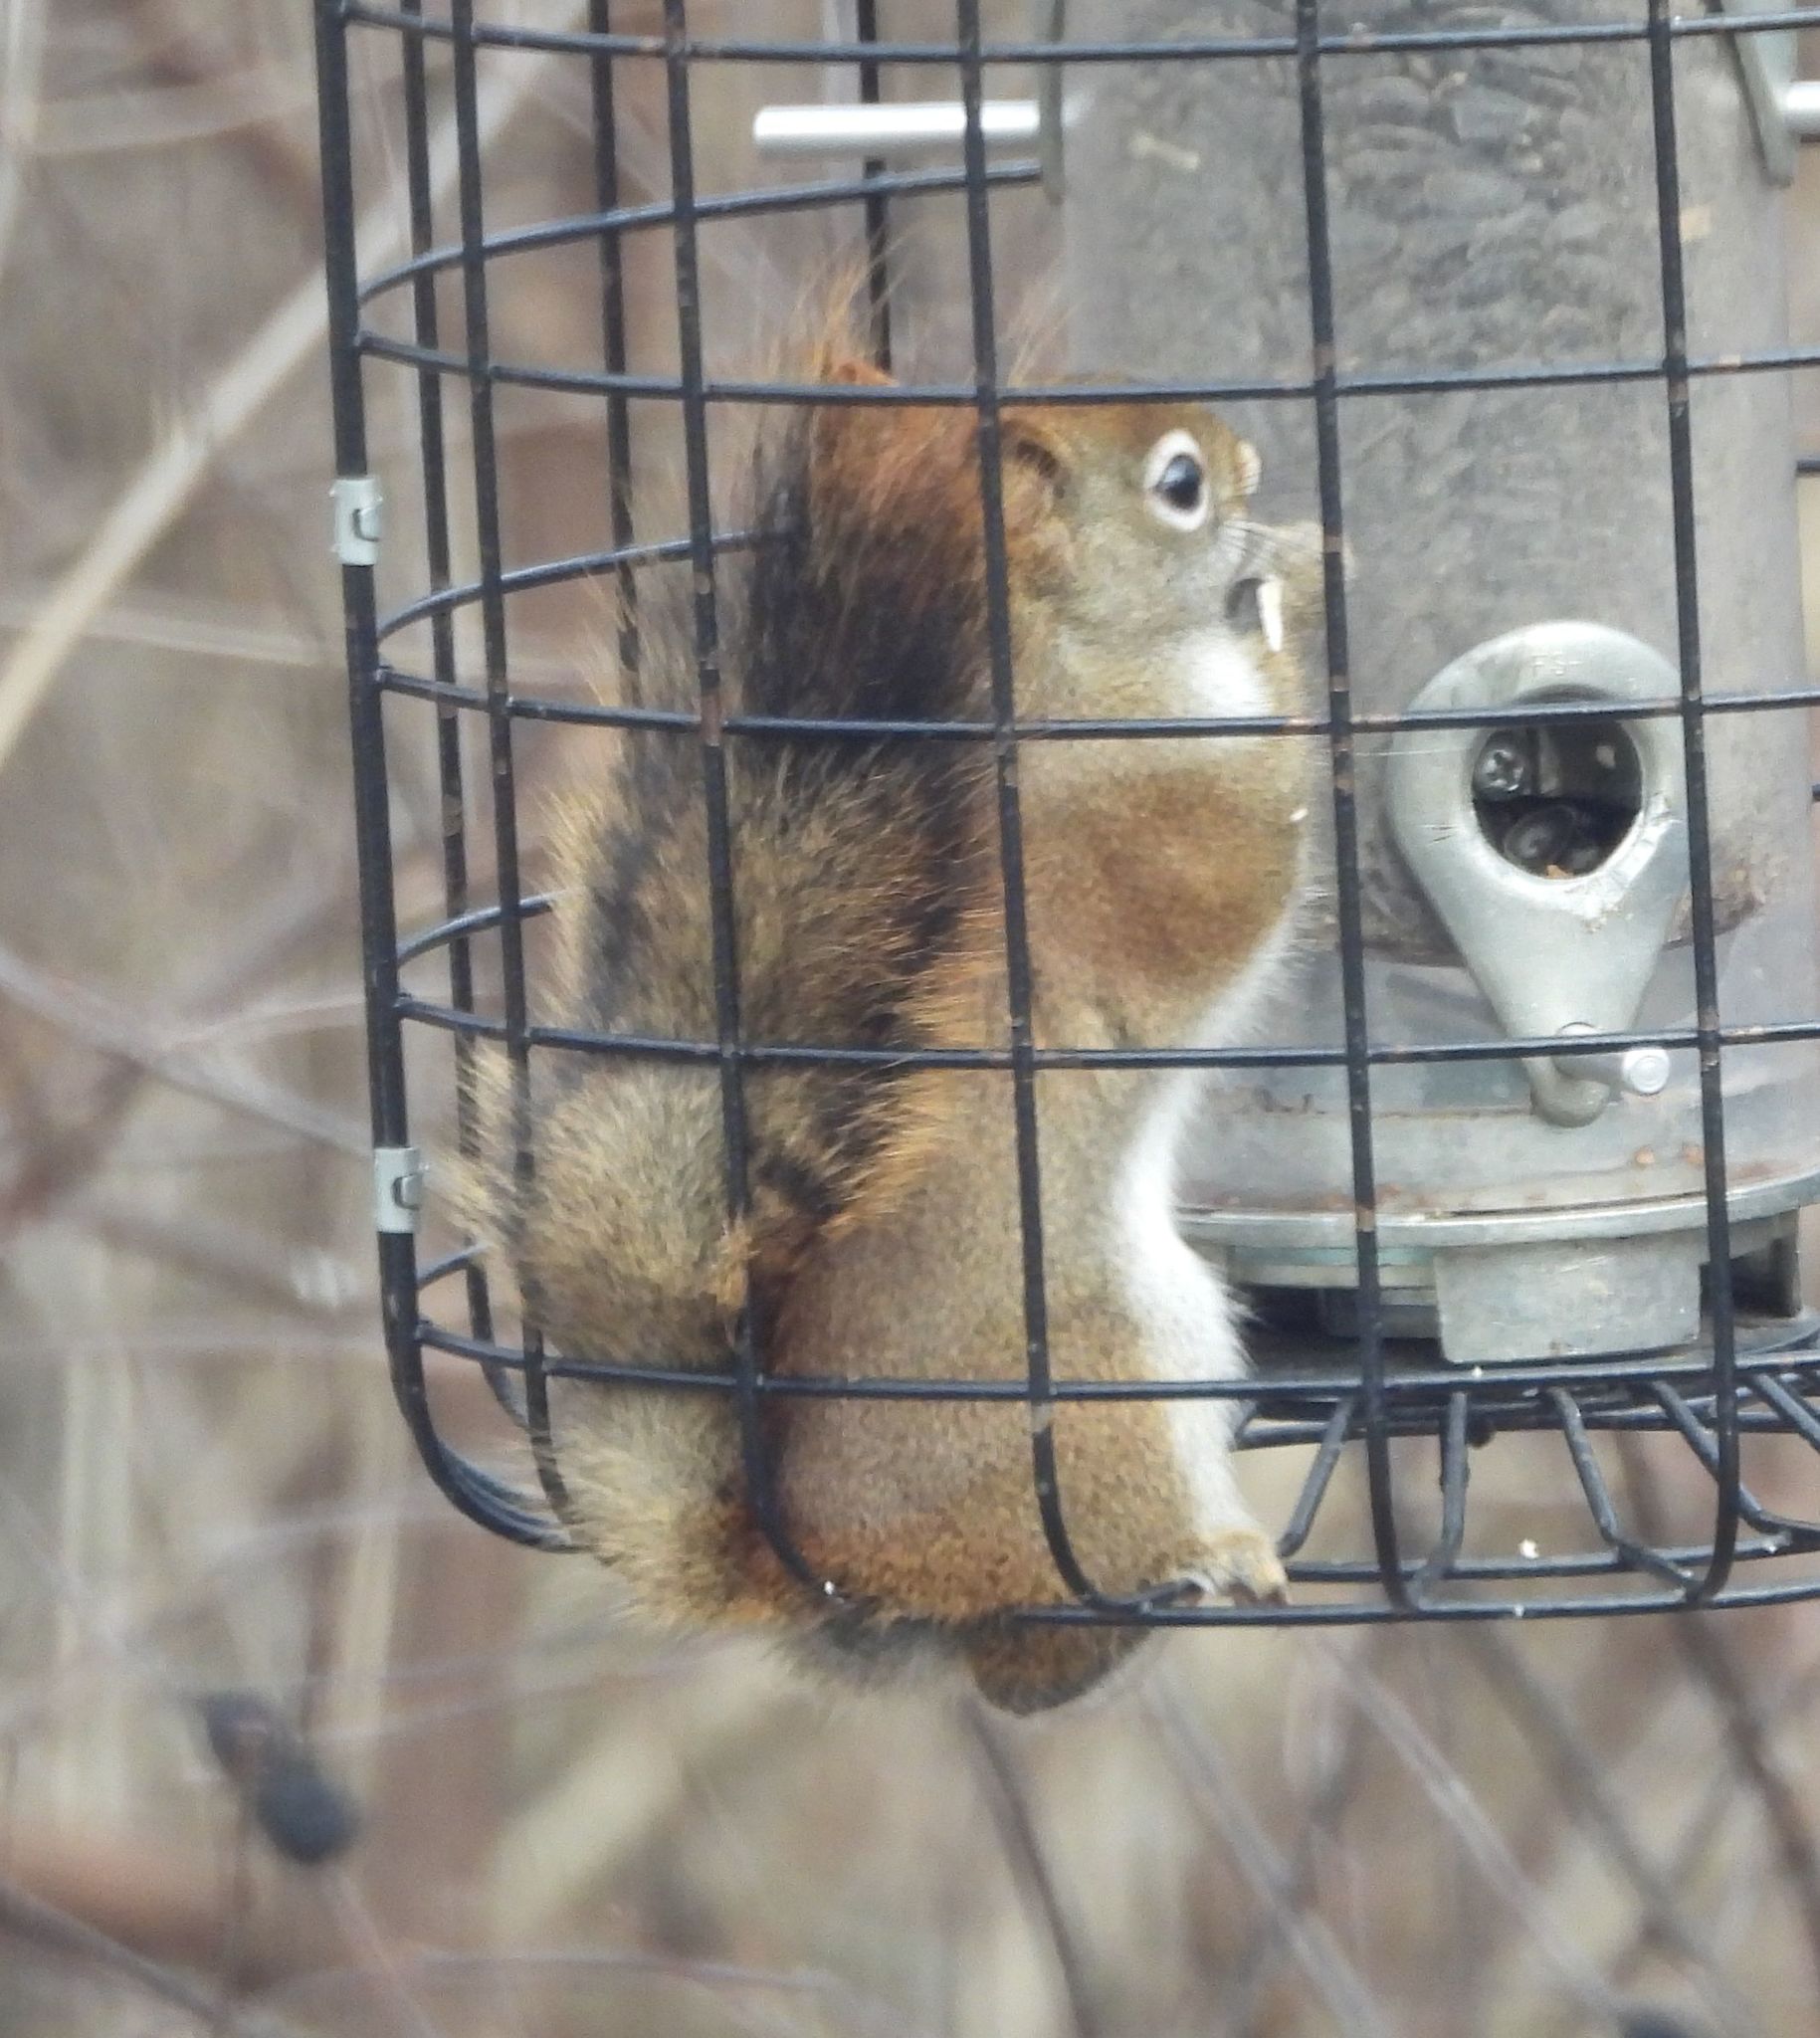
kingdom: Animalia
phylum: Chordata
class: Mammalia
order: Rodentia
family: Sciuridae
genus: Tamiasciurus
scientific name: Tamiasciurus hudsonicus
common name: Red squirrel
